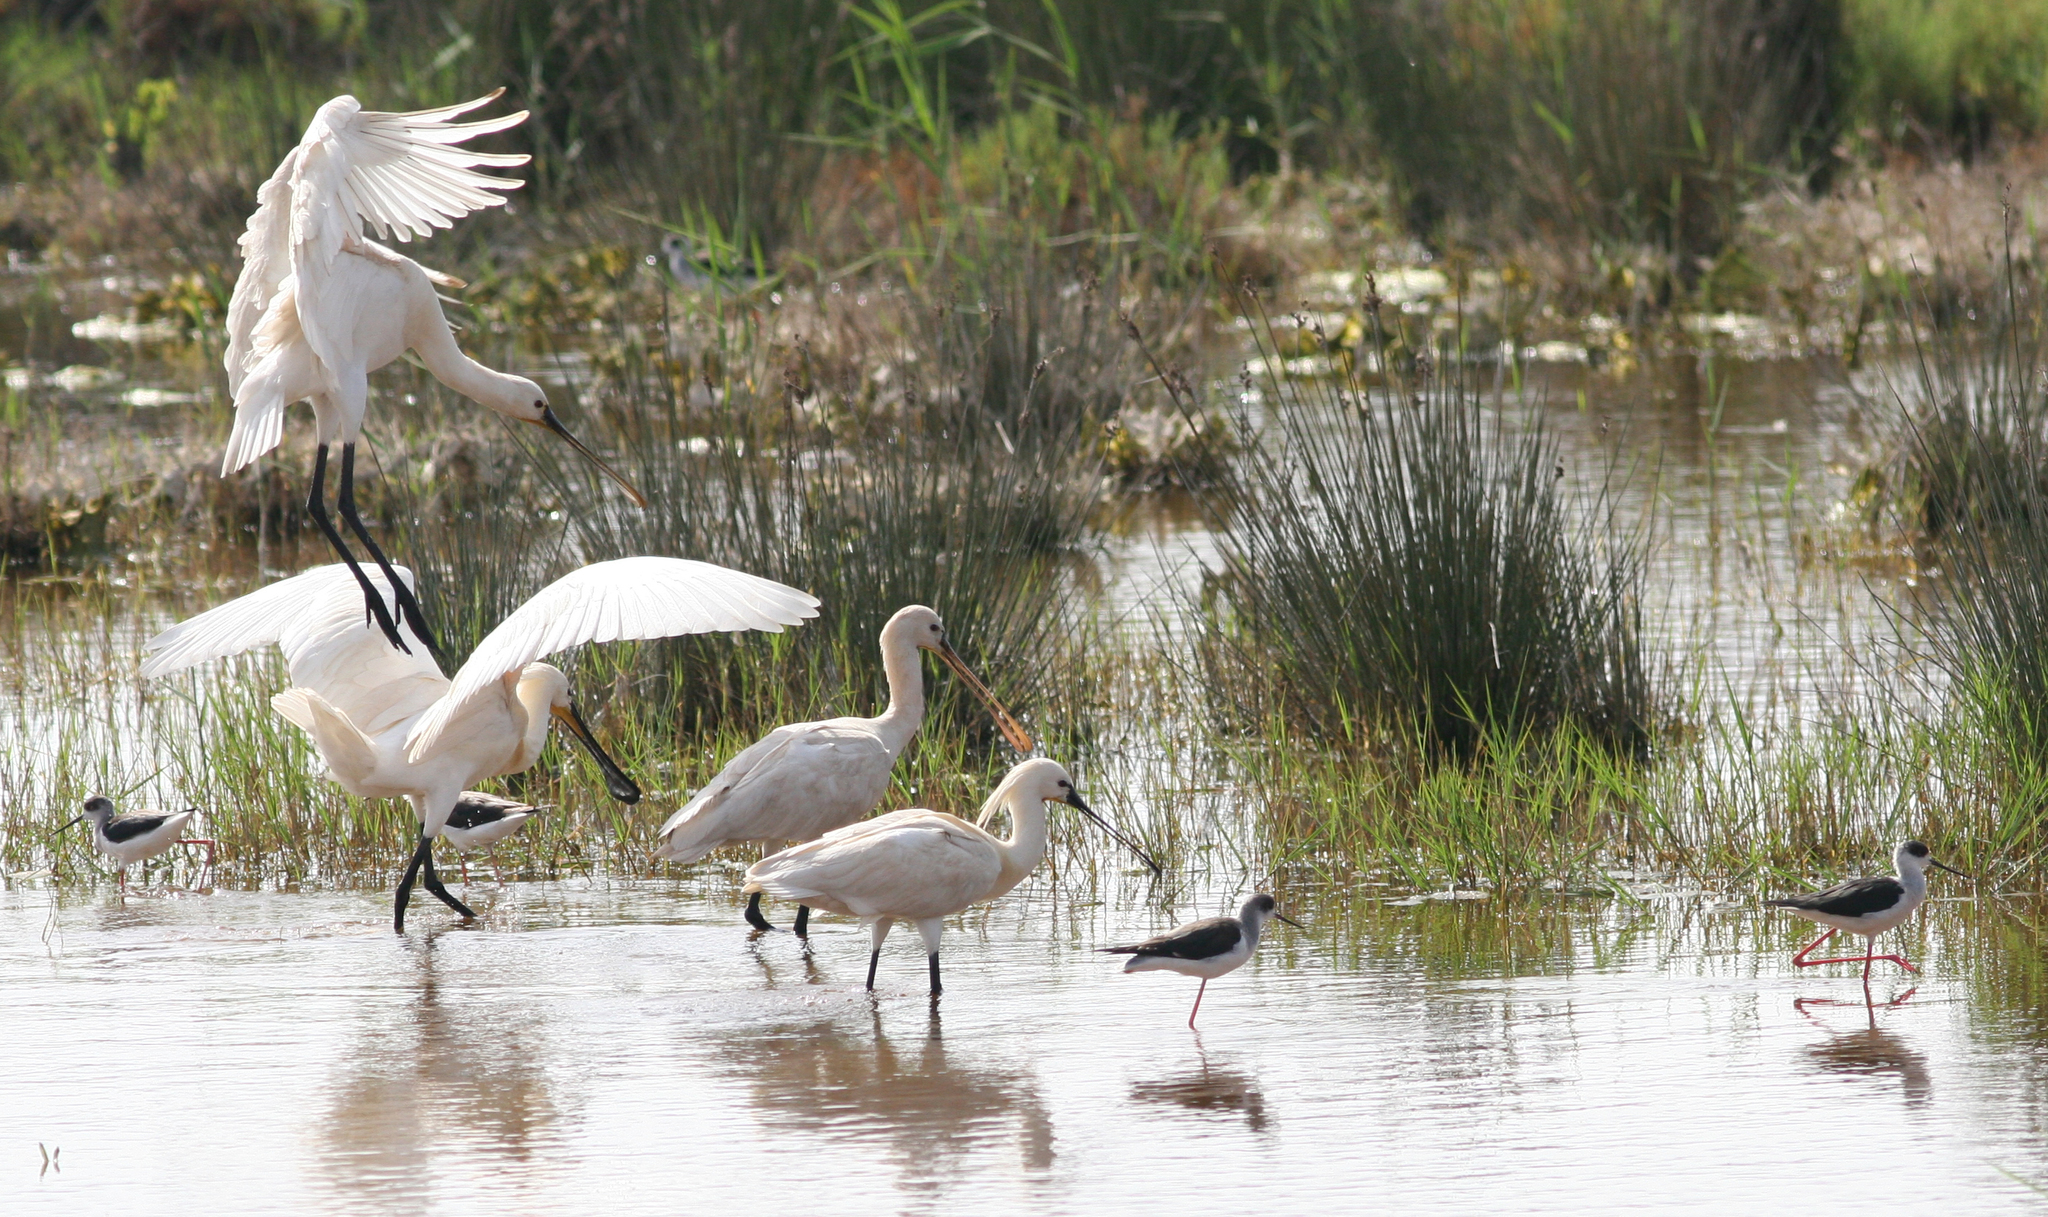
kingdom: Animalia
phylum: Chordata
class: Aves
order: Pelecaniformes
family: Threskiornithidae
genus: Platalea
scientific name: Platalea leucorodia
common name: Eurasian spoonbill
